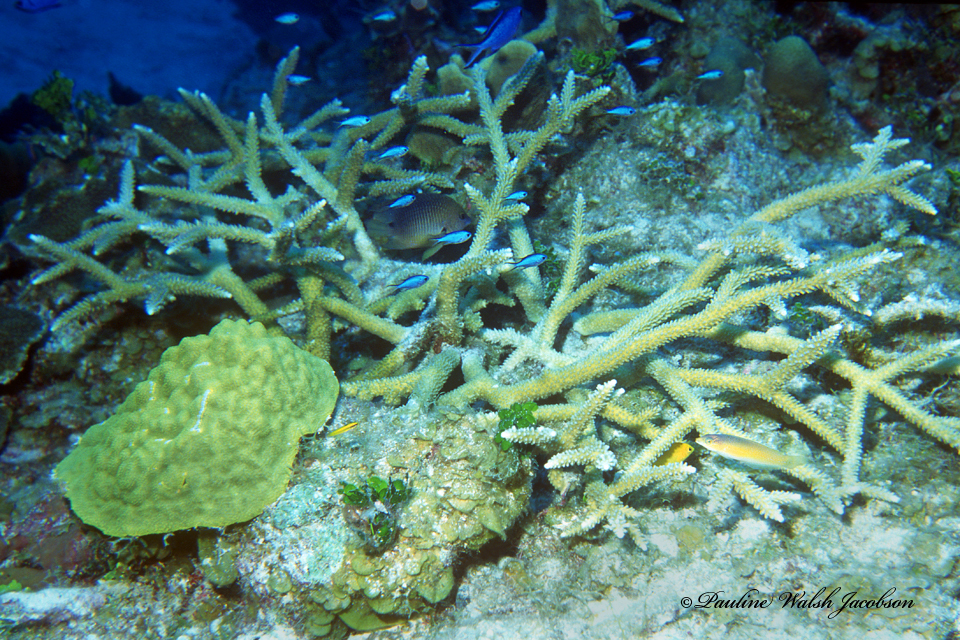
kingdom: Animalia
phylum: Cnidaria
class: Anthozoa
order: Scleractinia
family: Acroporidae
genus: Acropora
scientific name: Acropora cervicornis
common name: Staghorn coral
